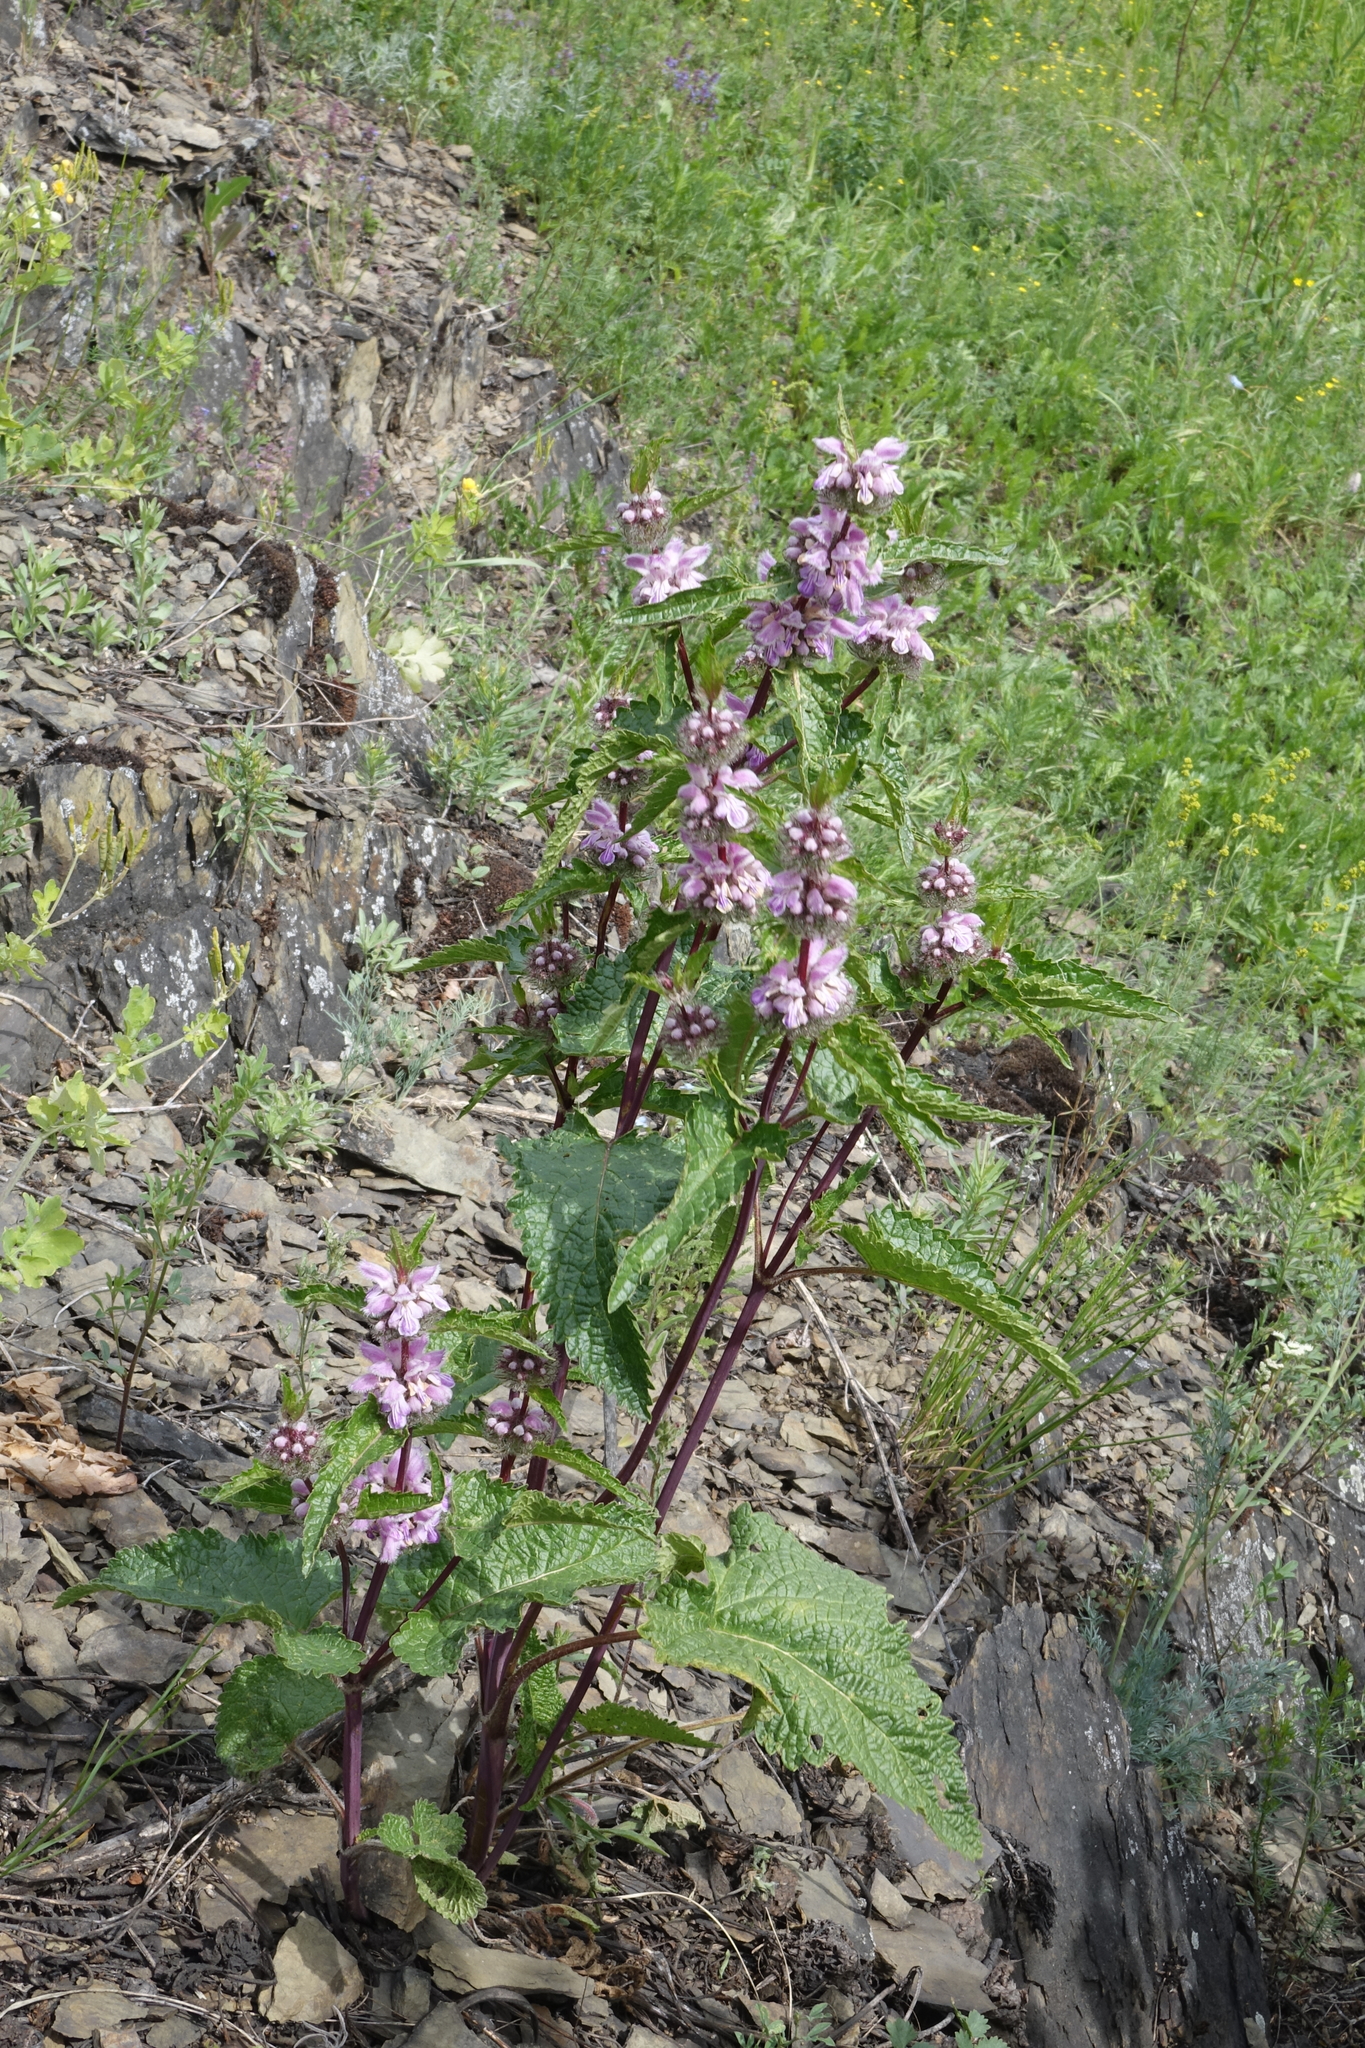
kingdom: Plantae
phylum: Tracheophyta
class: Magnoliopsida
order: Lamiales
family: Lamiaceae
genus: Phlomoides
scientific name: Phlomoides tuberosa
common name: Tuberous jerusalem sage
